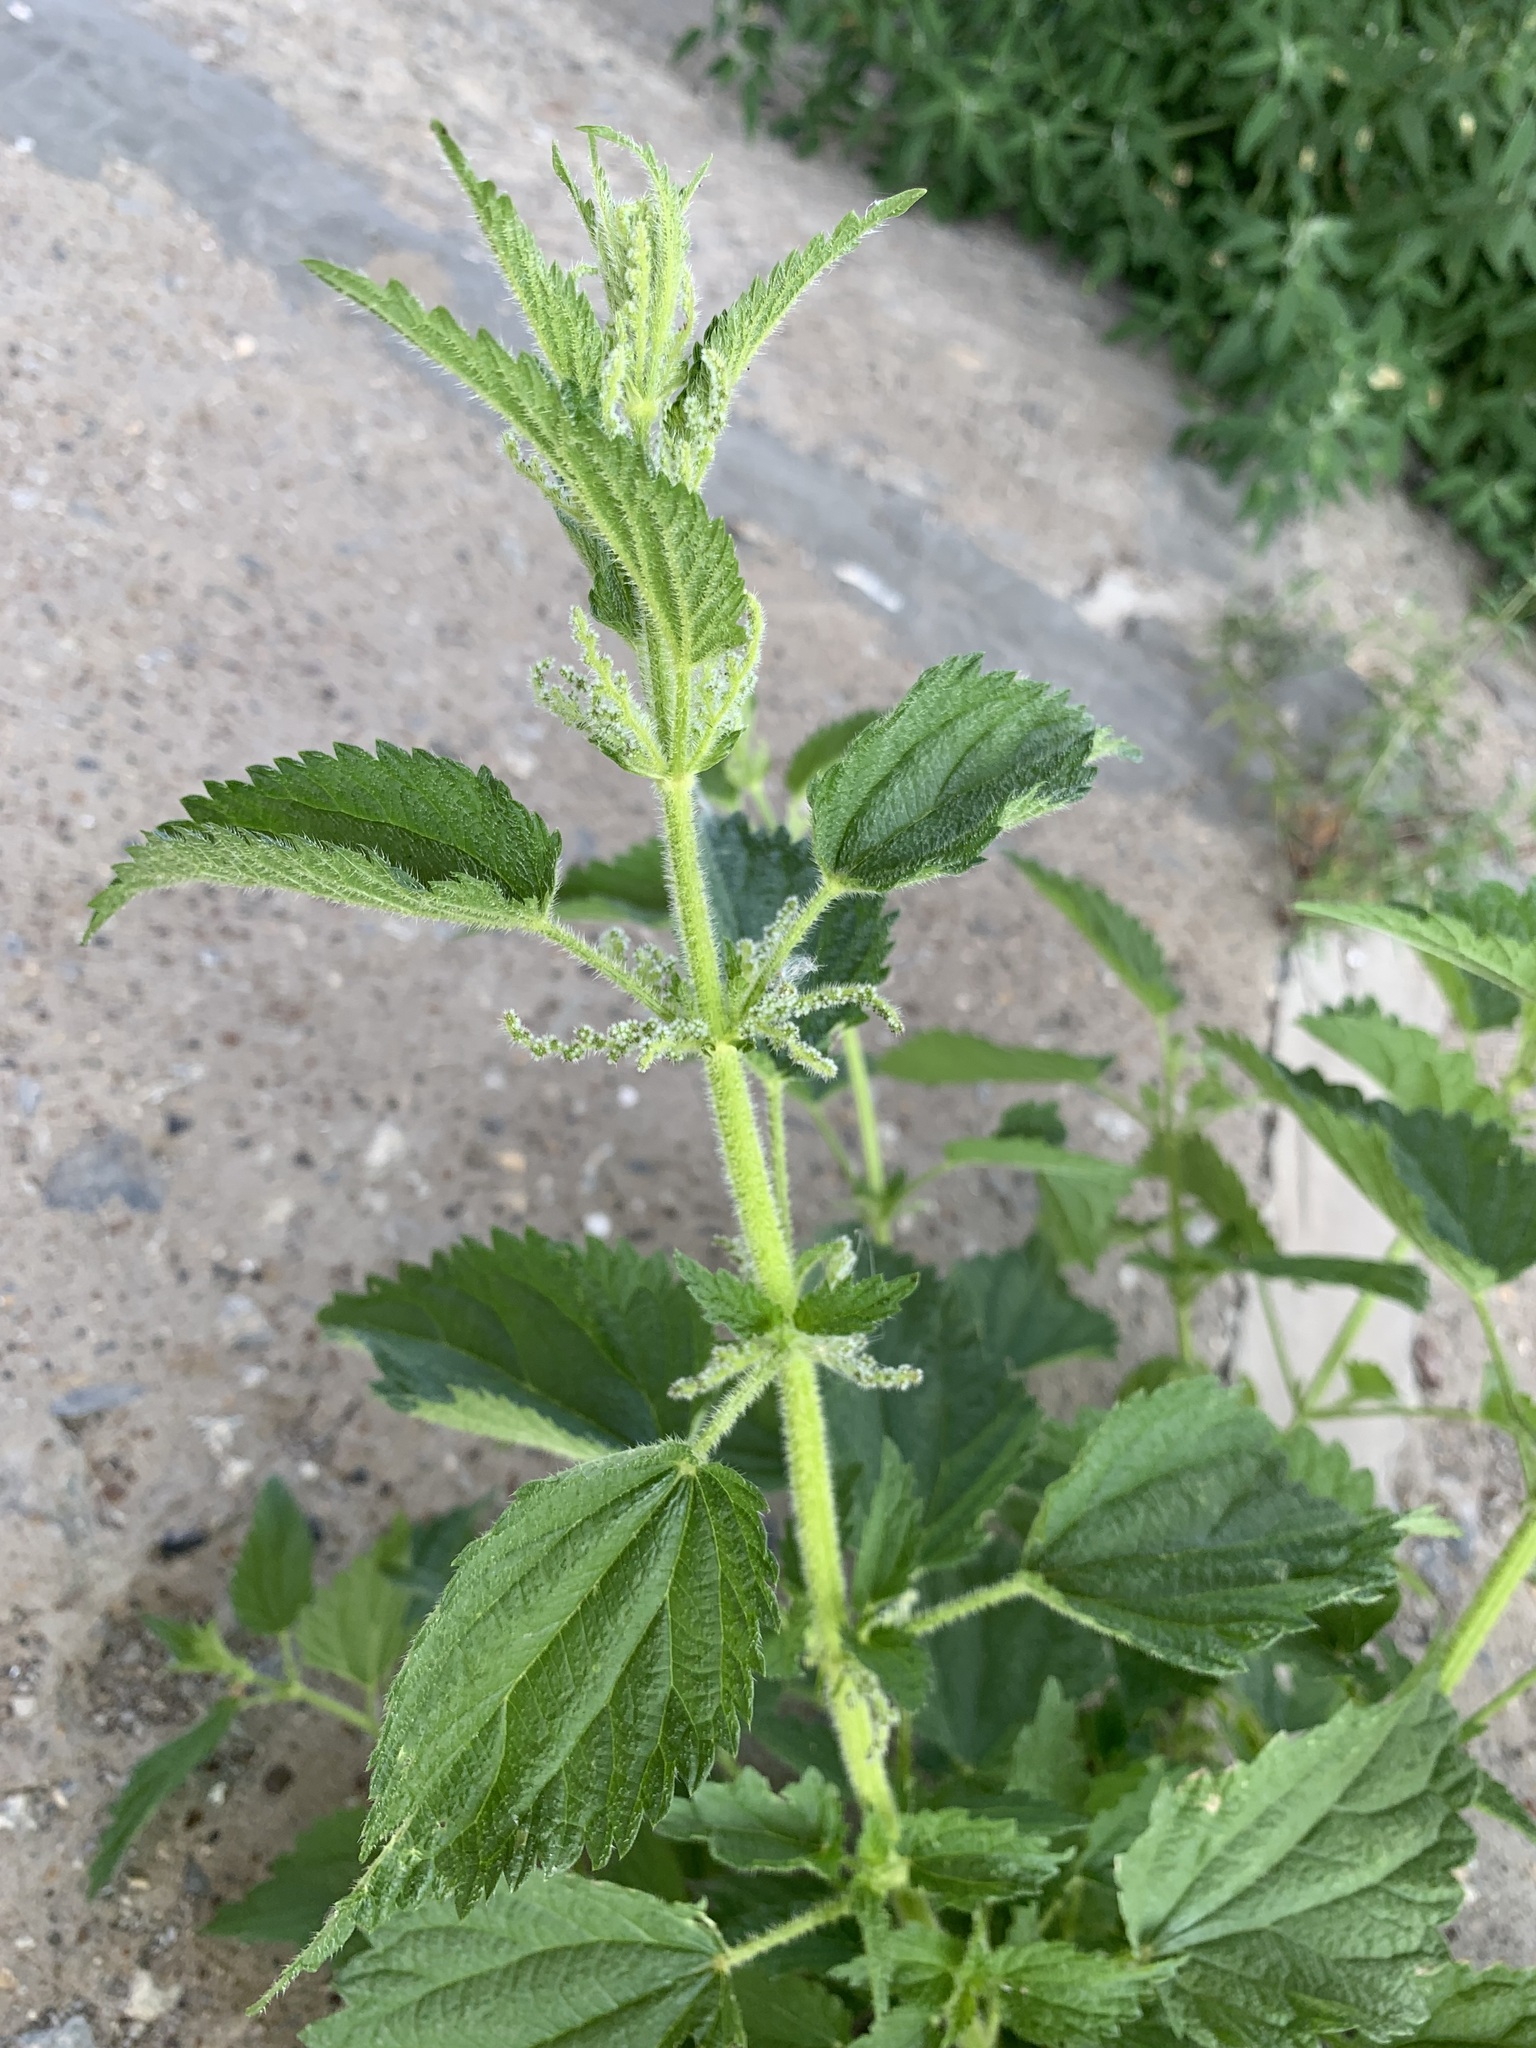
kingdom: Plantae
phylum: Tracheophyta
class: Magnoliopsida
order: Rosales
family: Urticaceae
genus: Urtica
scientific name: Urtica dioica
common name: Common nettle
